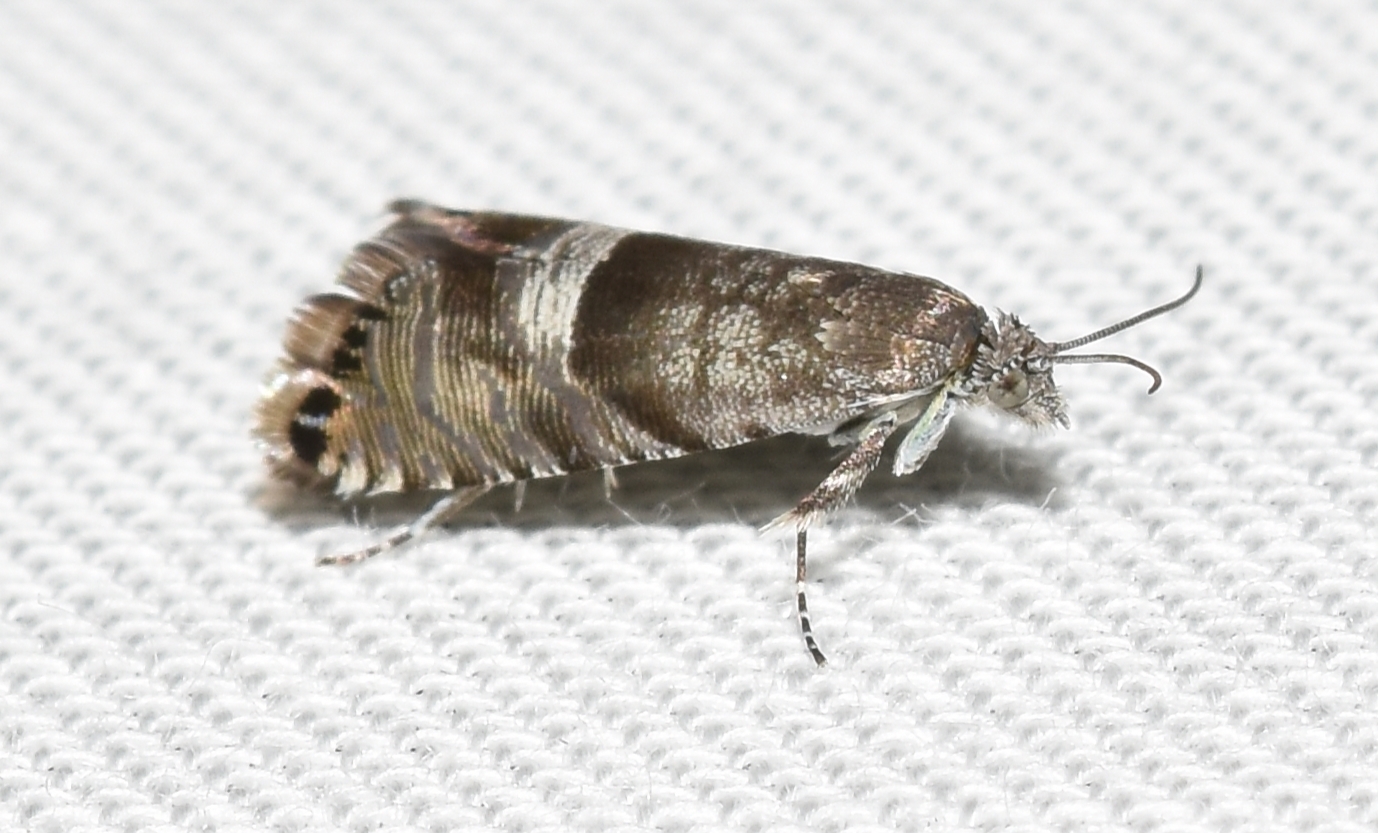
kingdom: Animalia
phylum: Arthropoda
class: Insecta
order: Lepidoptera
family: Tortricidae
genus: Sereda
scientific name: Sereda tautana
